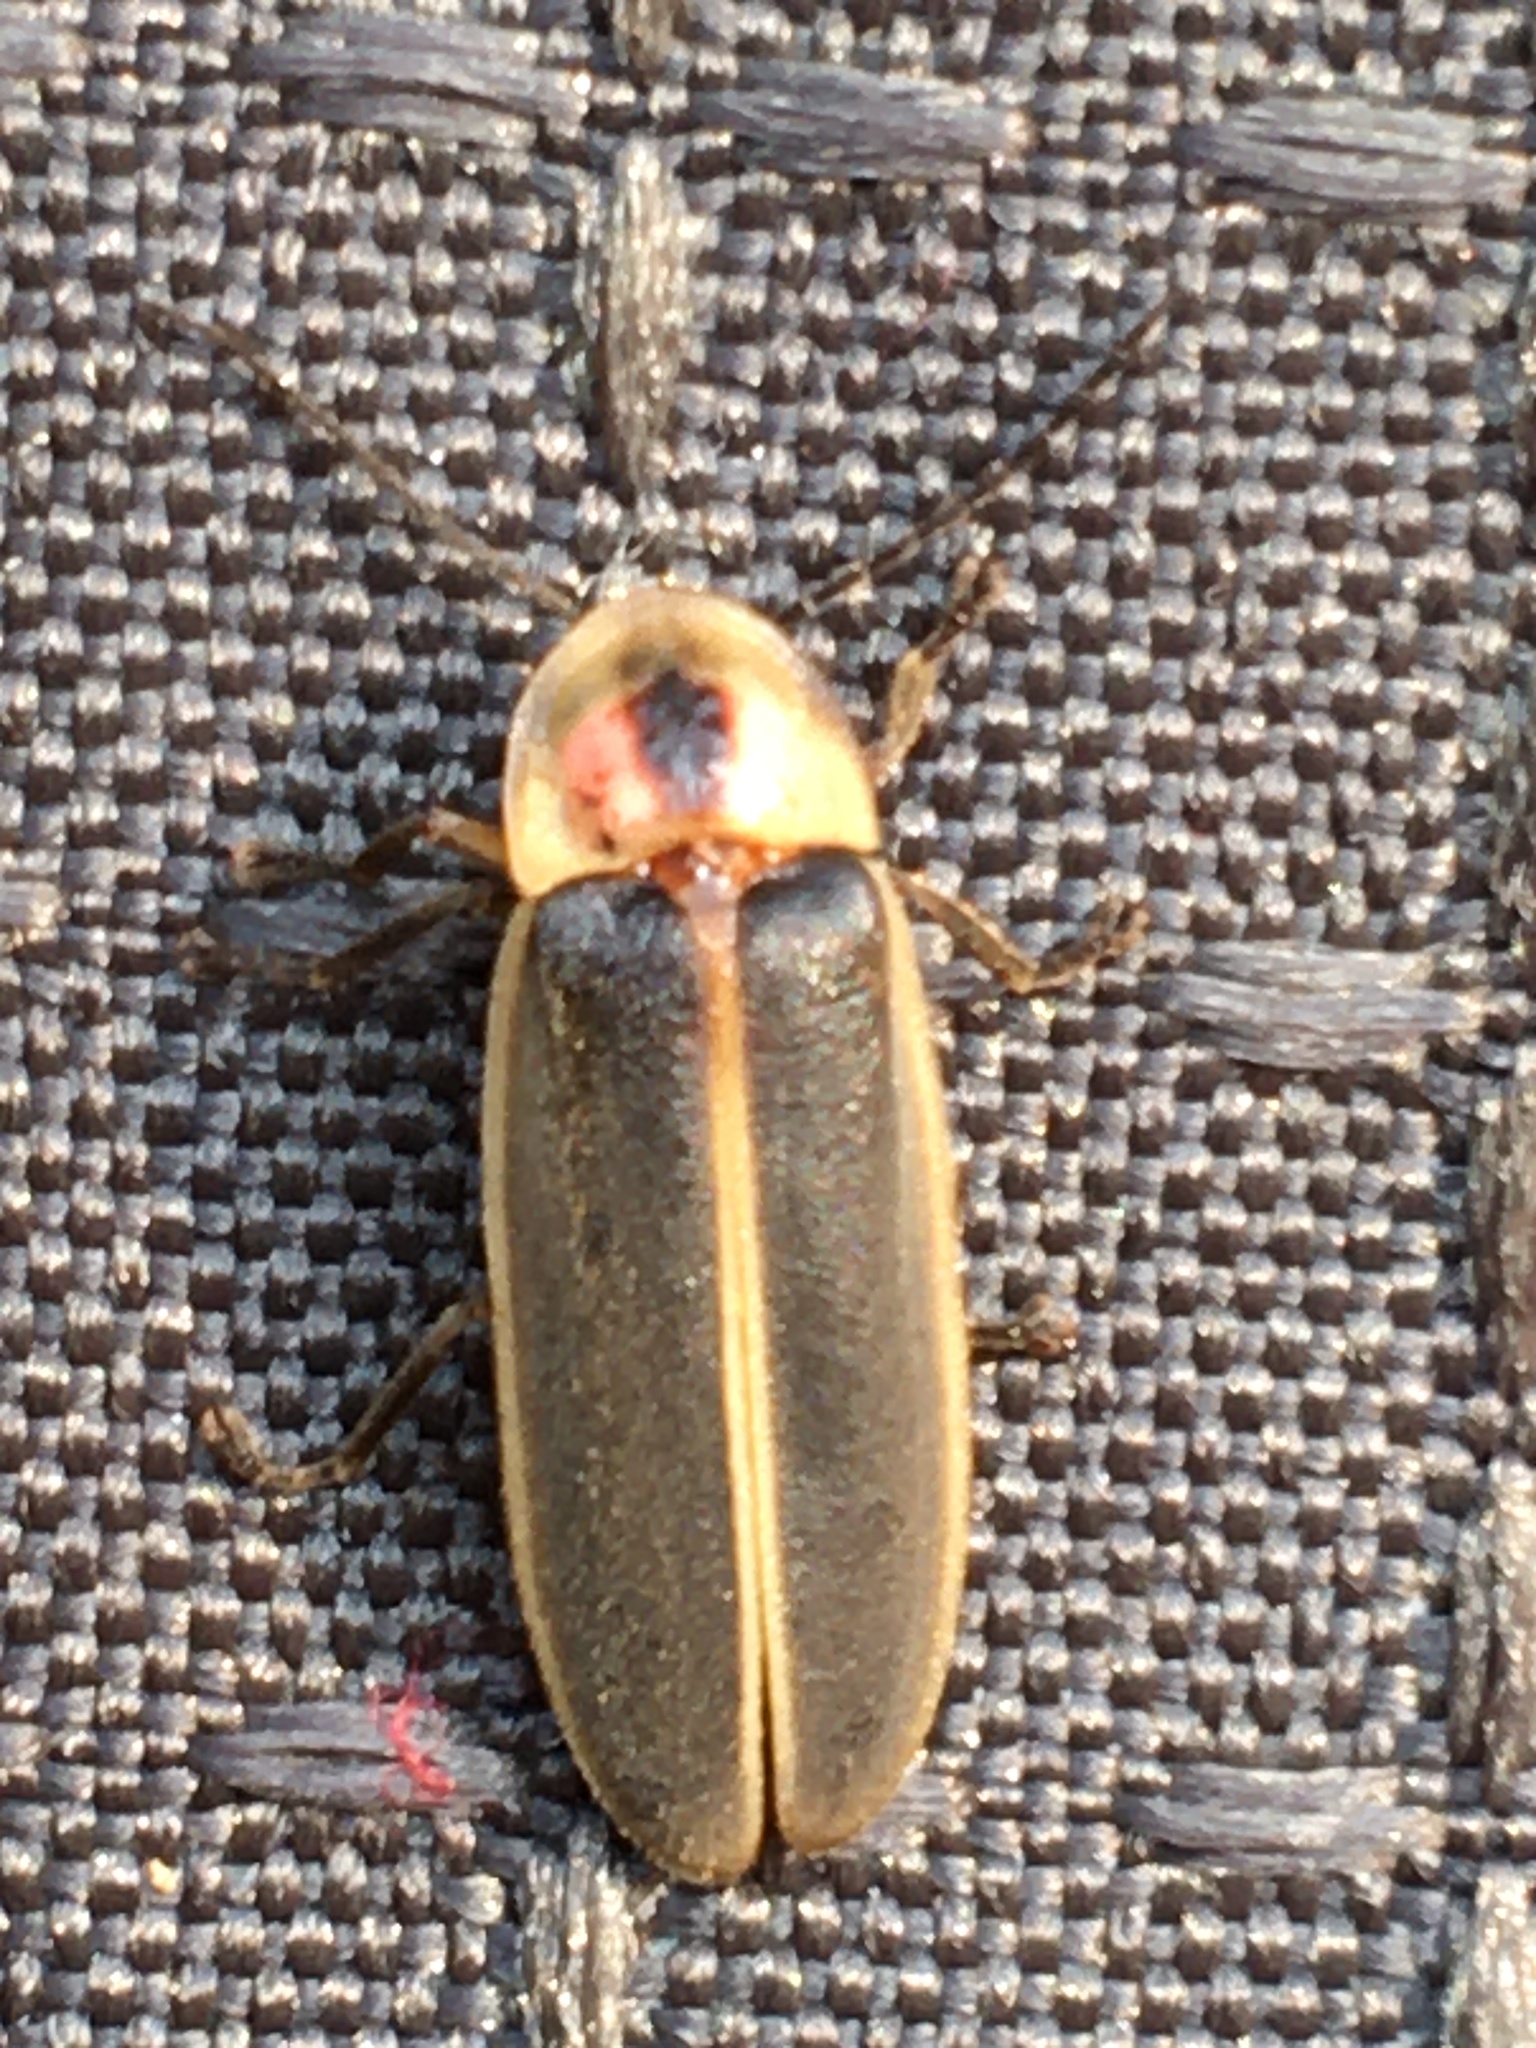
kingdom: Animalia
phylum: Arthropoda
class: Insecta
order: Coleoptera
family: Lampyridae
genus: Photinus
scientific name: Photinus pyralis
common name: Big dipper firefly
